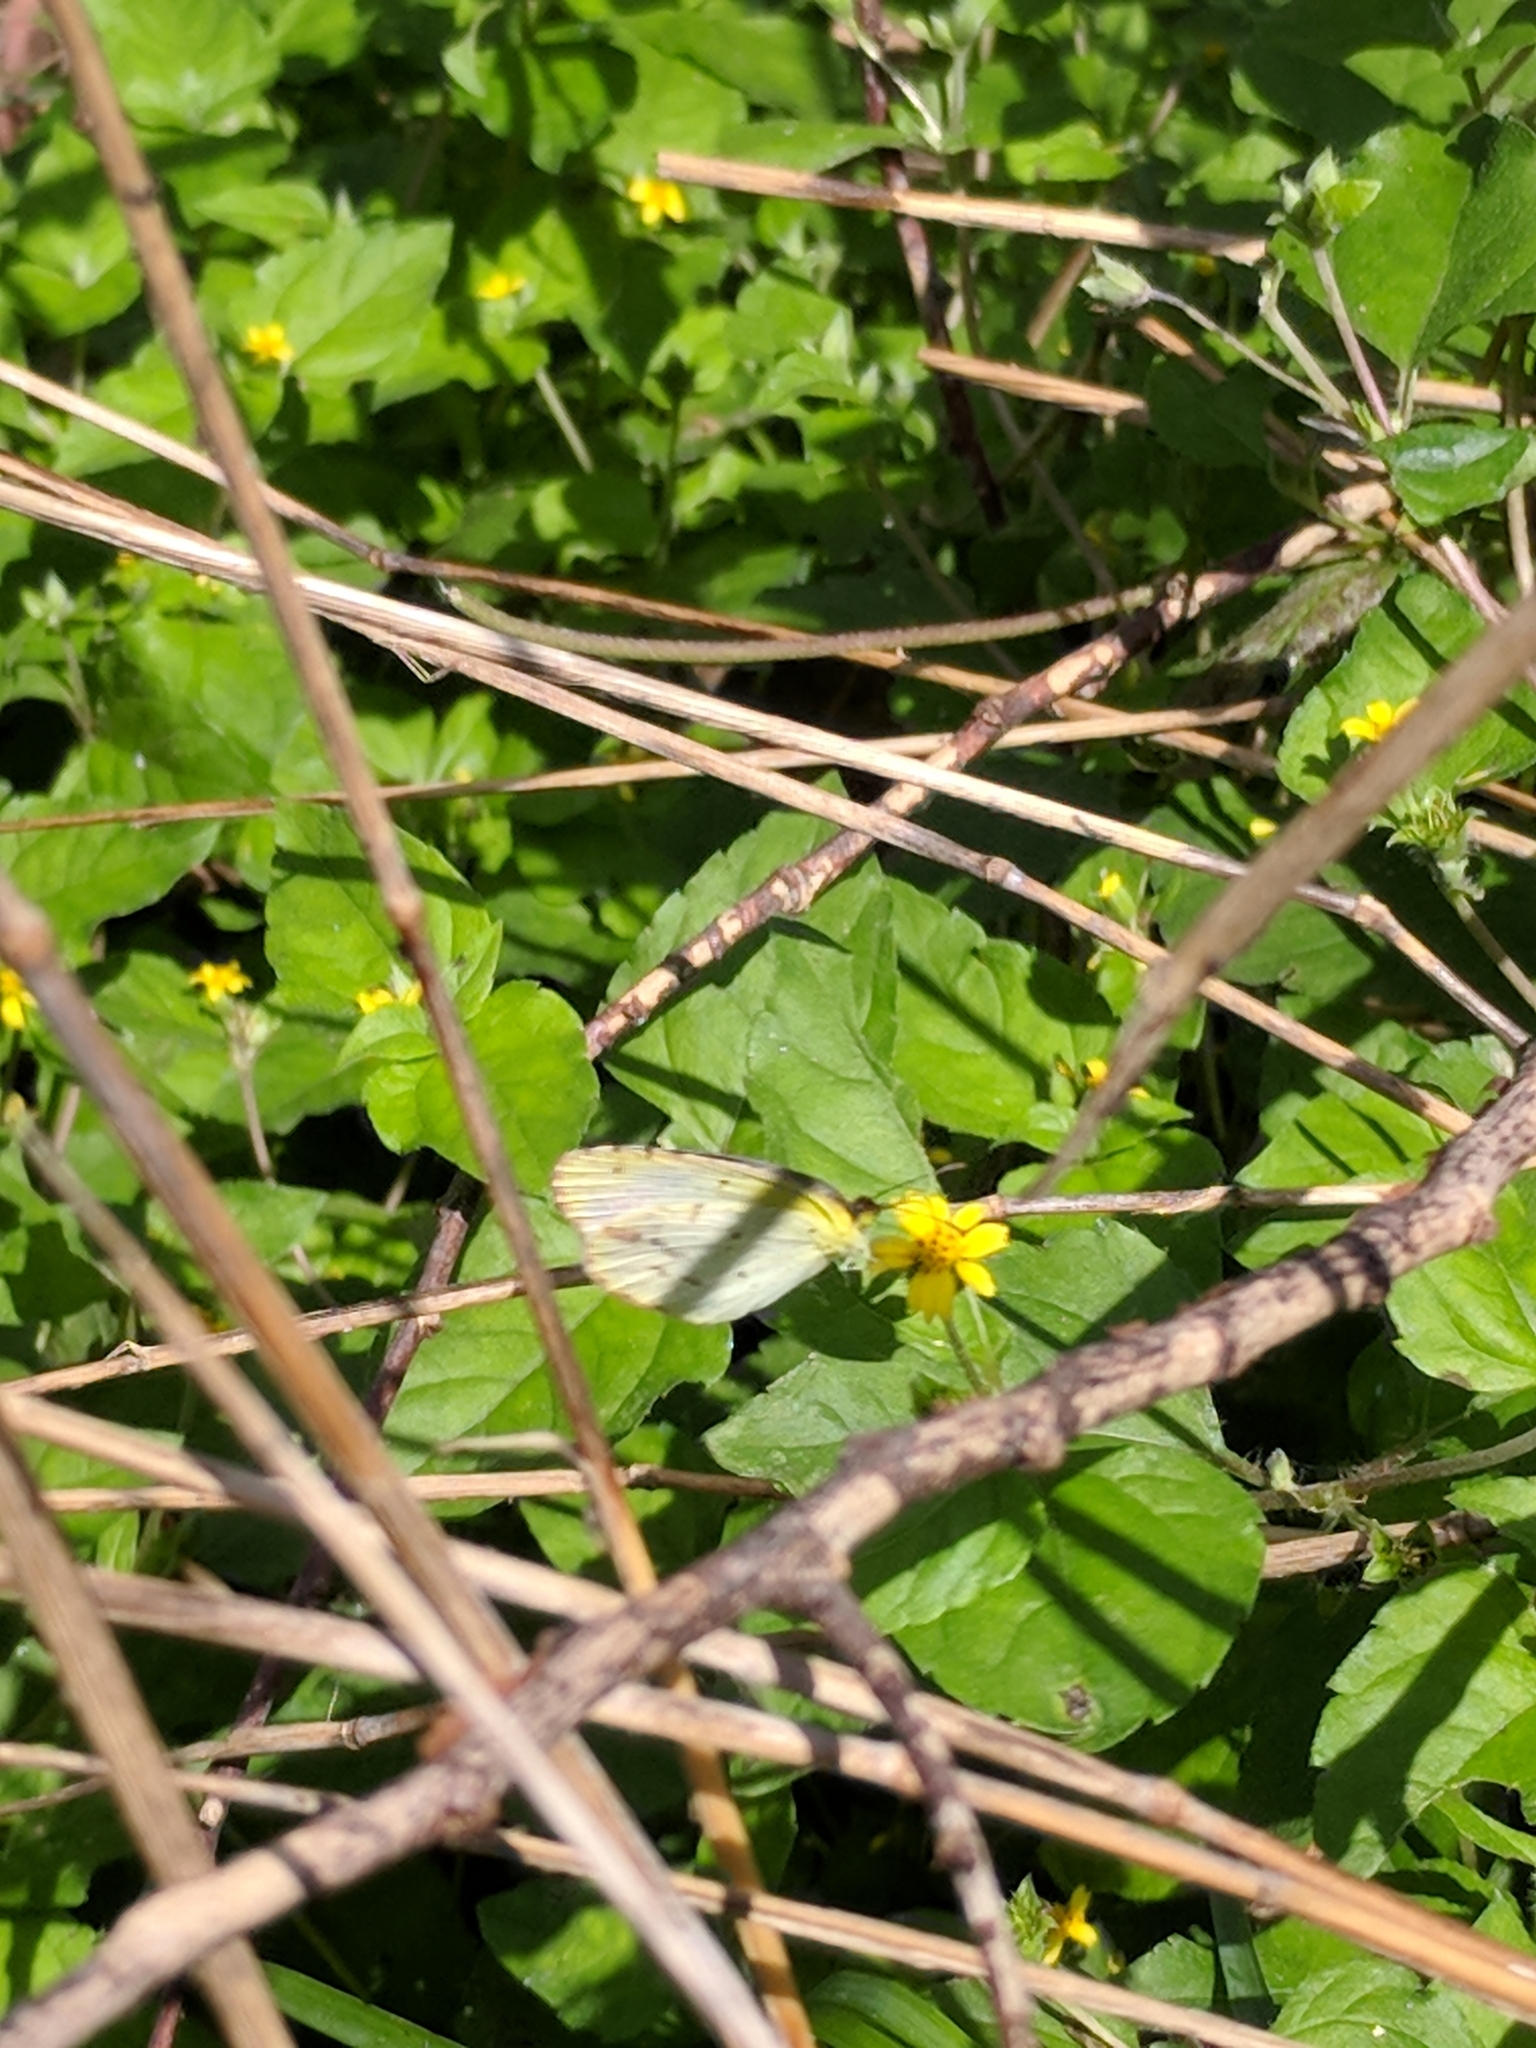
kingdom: Animalia
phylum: Arthropoda
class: Insecta
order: Lepidoptera
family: Pieridae
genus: Pyrisitia
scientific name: Pyrisitia lisa
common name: Little yellow
